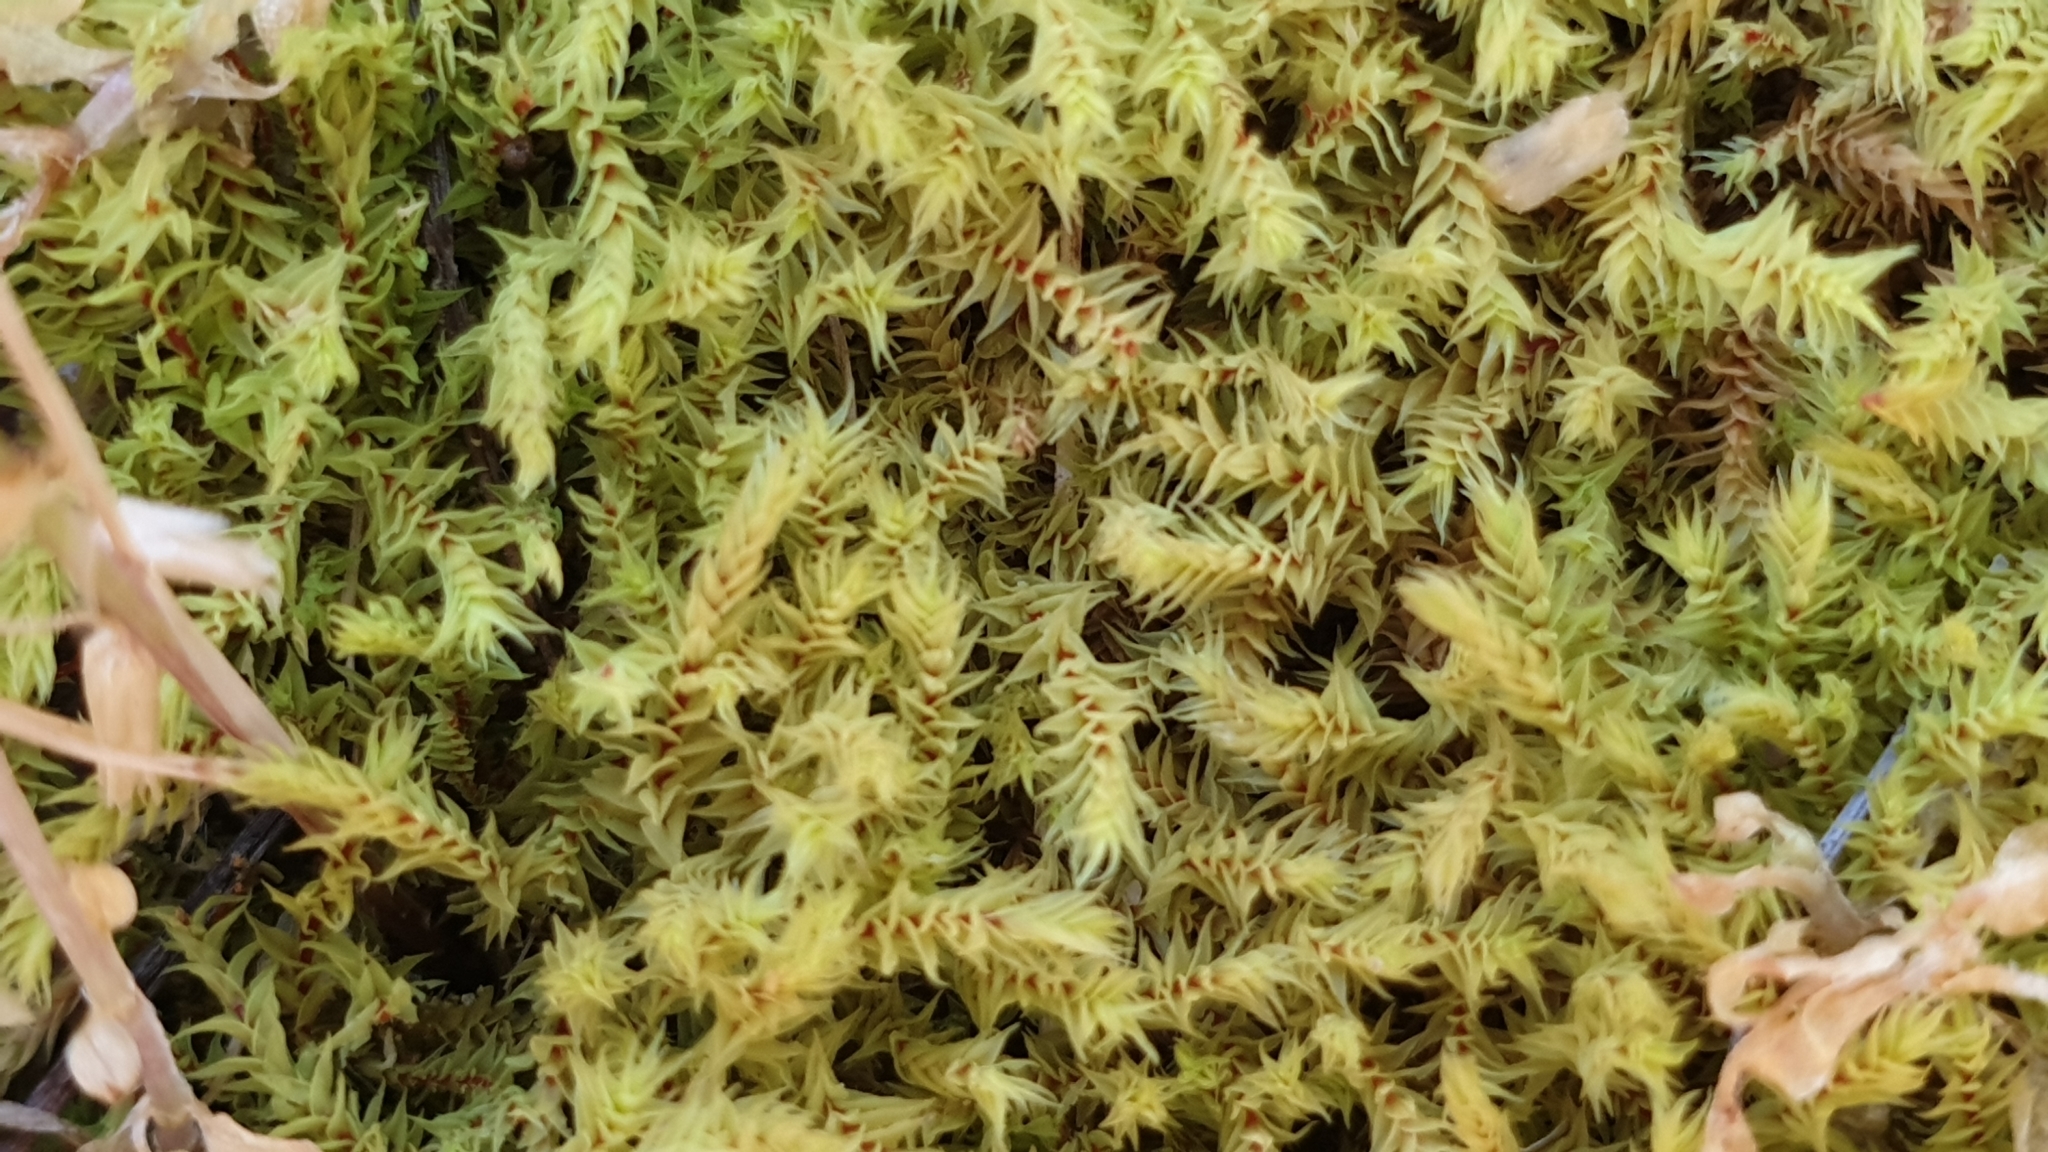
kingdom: Plantae
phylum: Bryophyta
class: Bryopsida
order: Pottiales
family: Pottiaceae
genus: Triquetrella
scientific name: Triquetrella papillata
